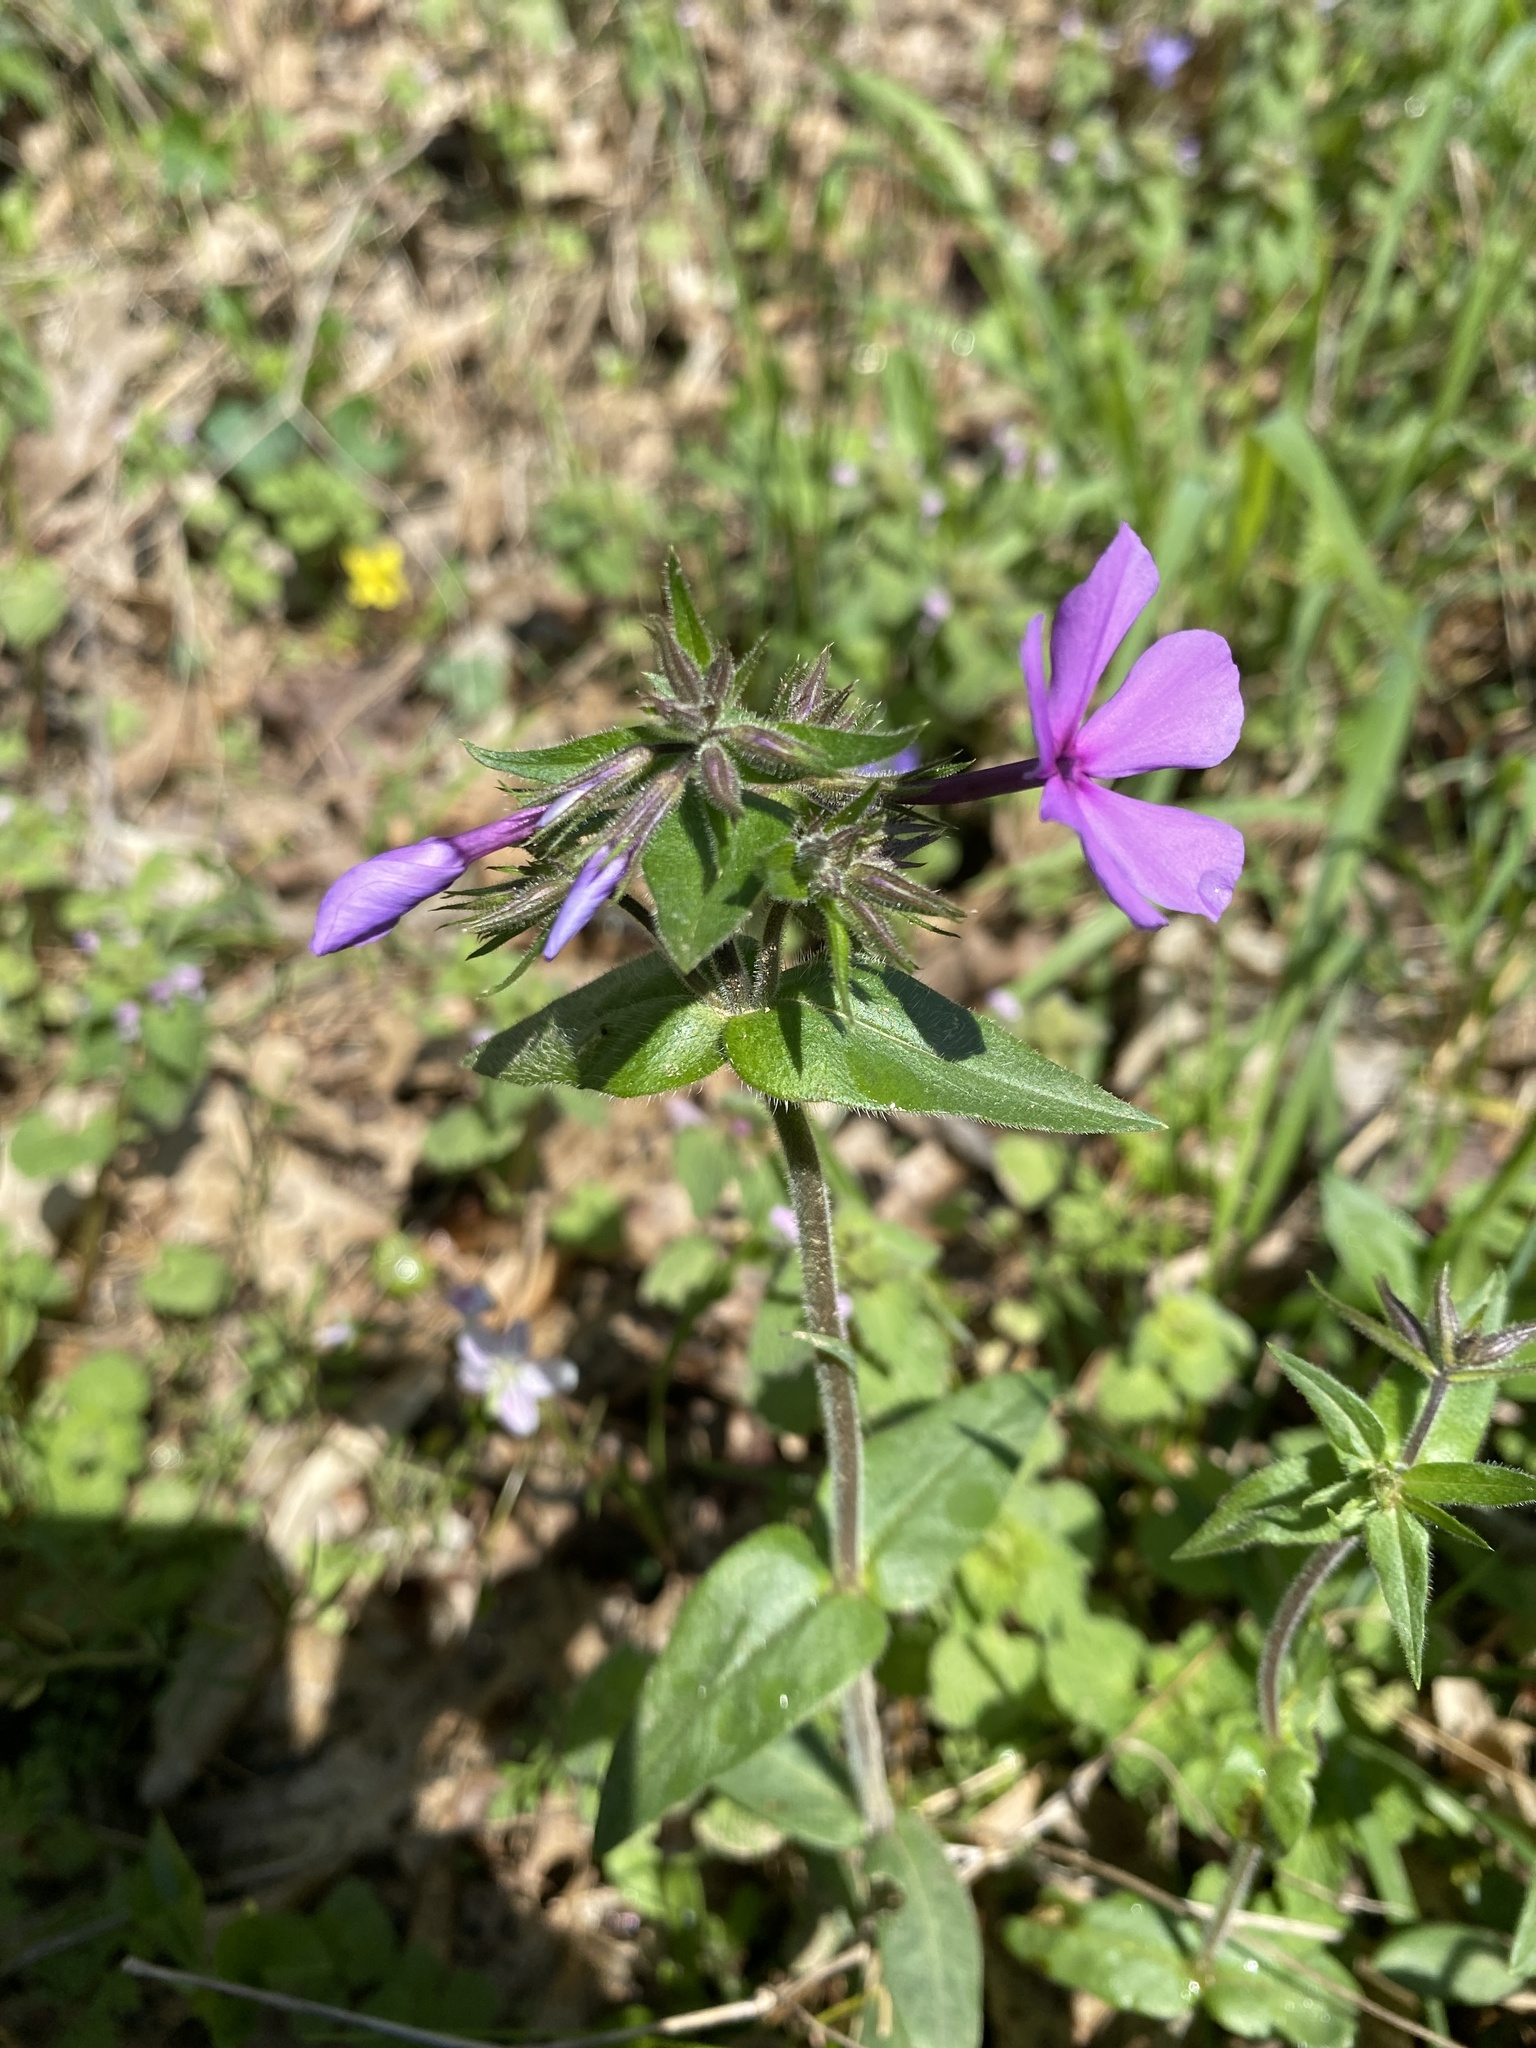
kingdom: Plantae
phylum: Tracheophyta
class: Magnoliopsida
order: Ericales
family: Polemoniaceae
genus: Phlox
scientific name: Phlox divaricata
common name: Blue phlox
